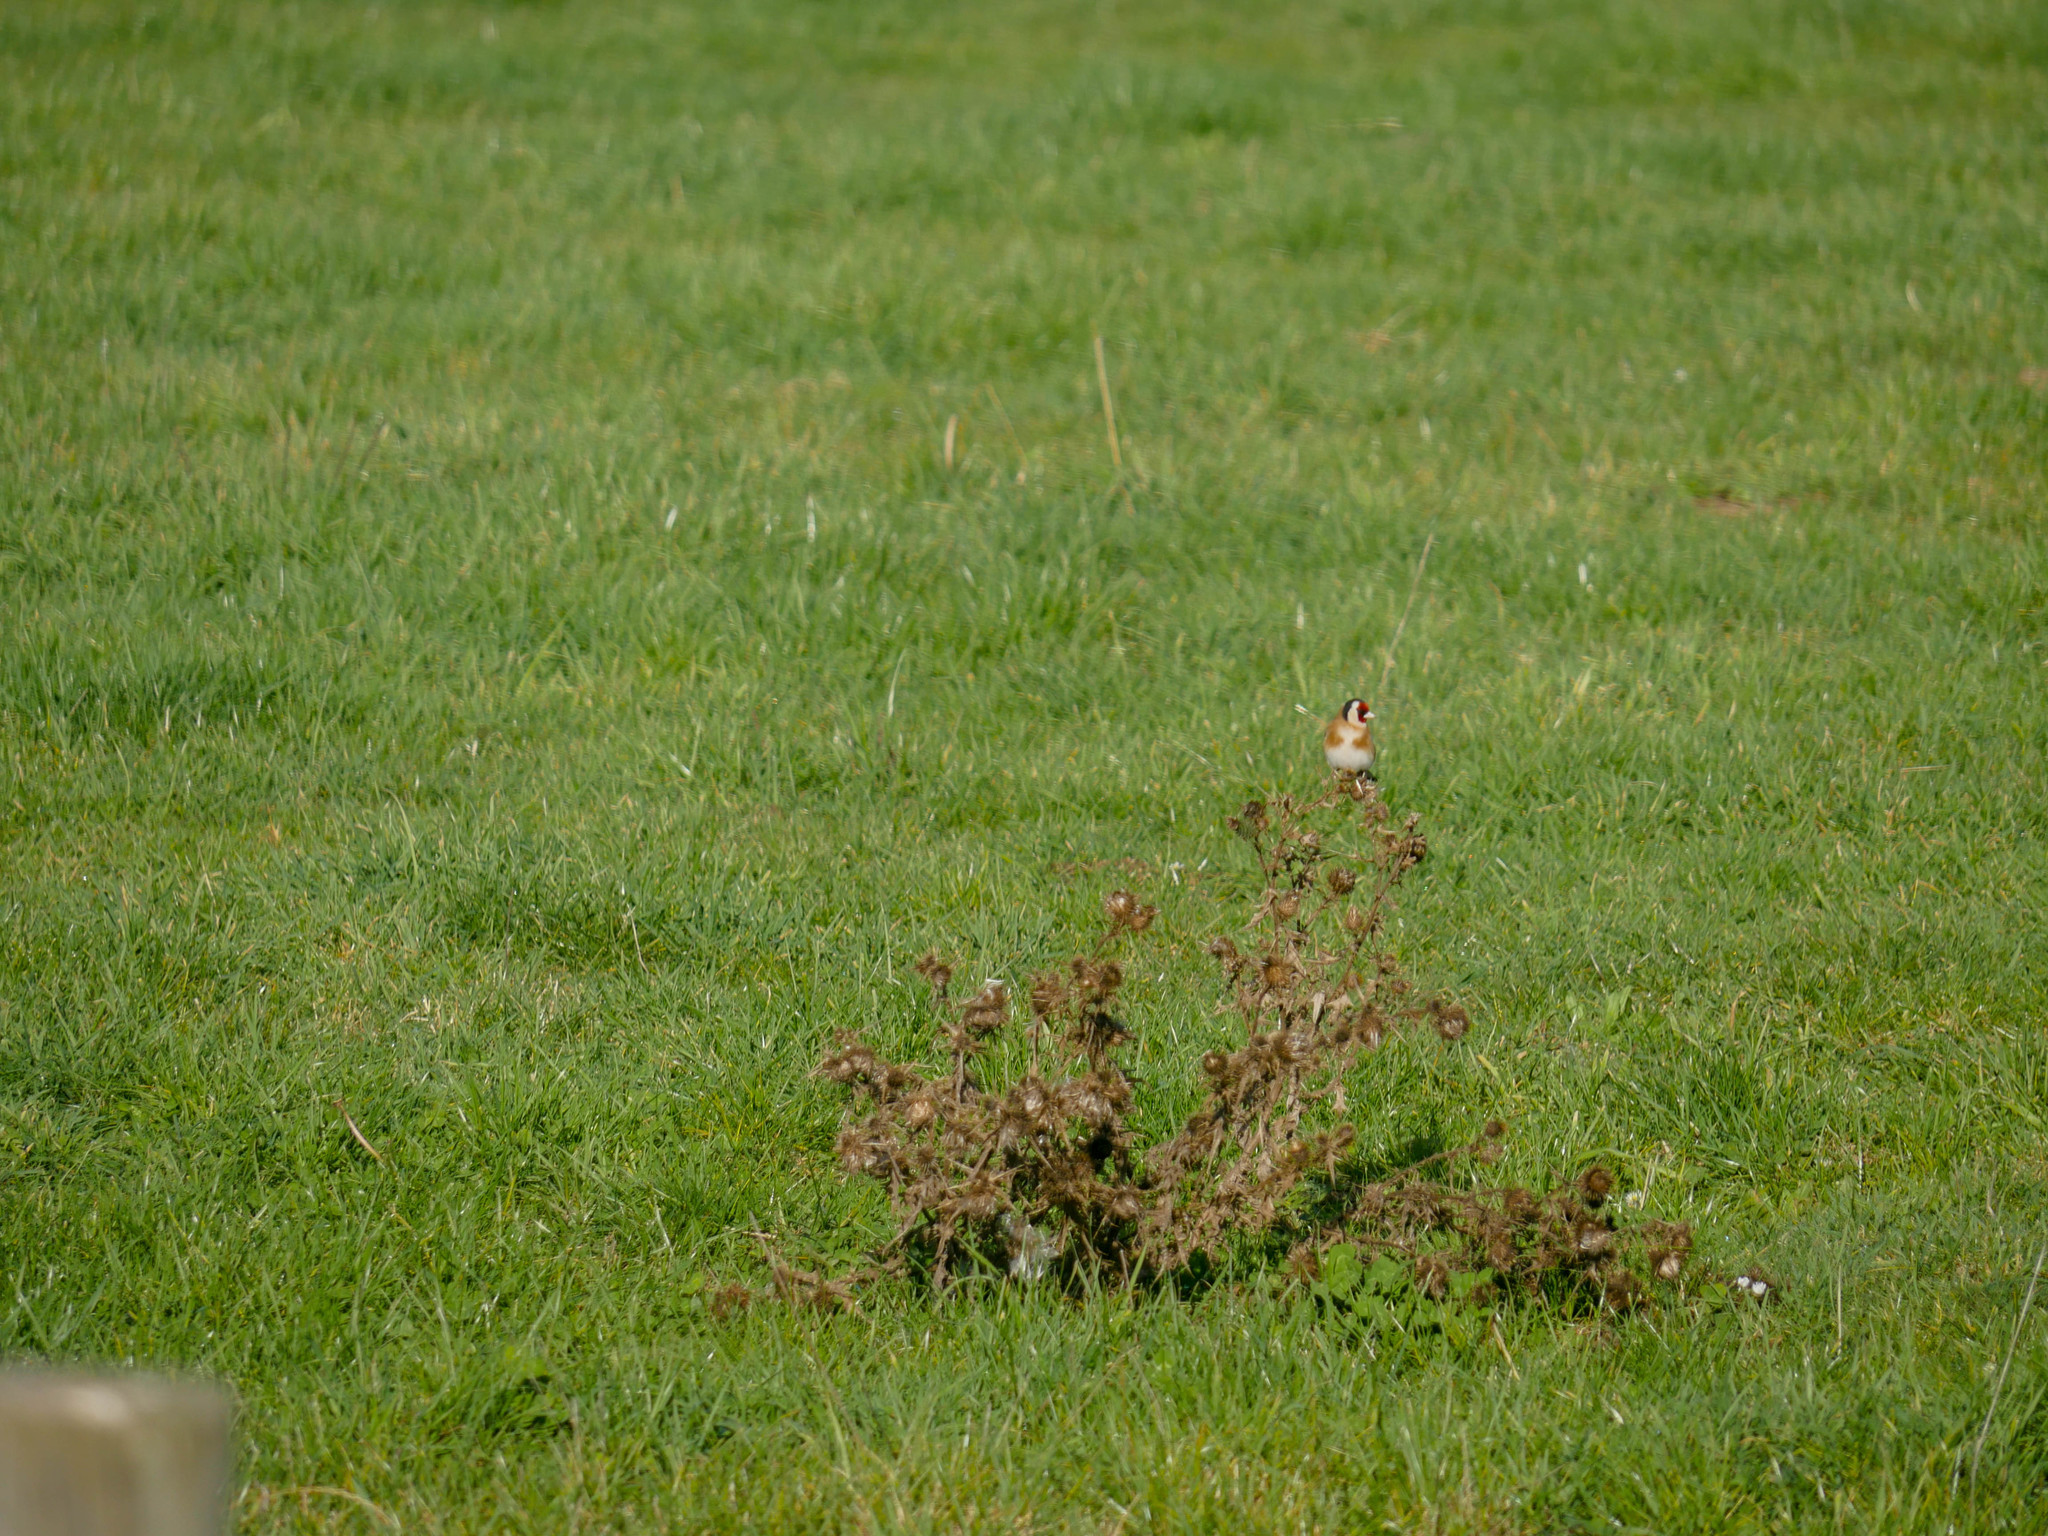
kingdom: Animalia
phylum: Chordata
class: Aves
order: Passeriformes
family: Fringillidae
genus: Carduelis
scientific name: Carduelis carduelis
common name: European goldfinch
